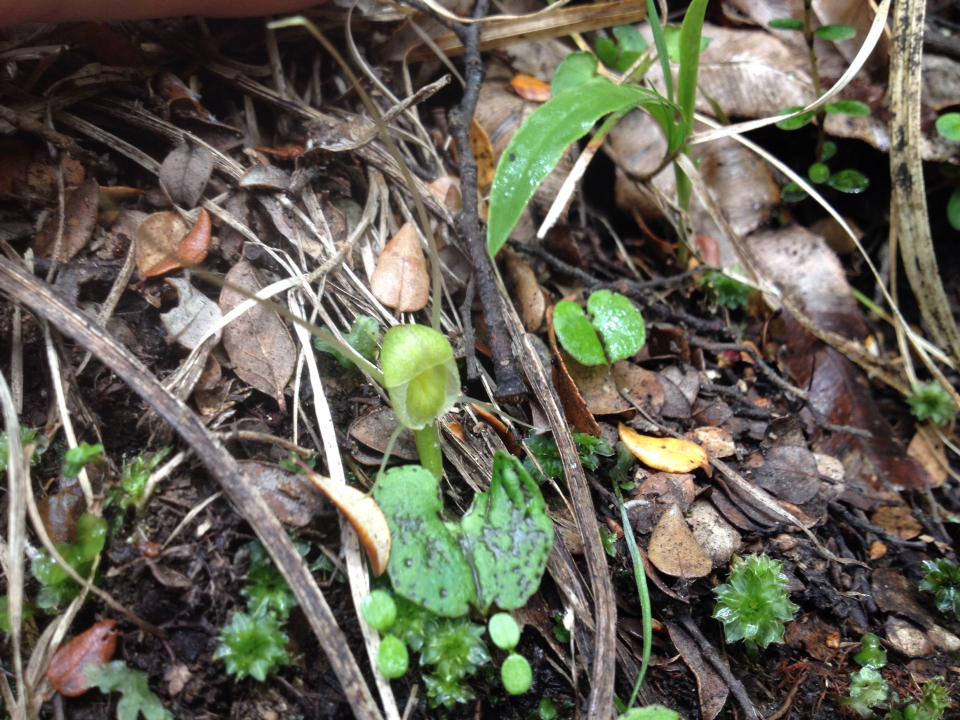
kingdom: Plantae
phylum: Tracheophyta
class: Liliopsida
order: Asparagales
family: Orchidaceae
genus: Corybas
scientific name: Corybas walliae
